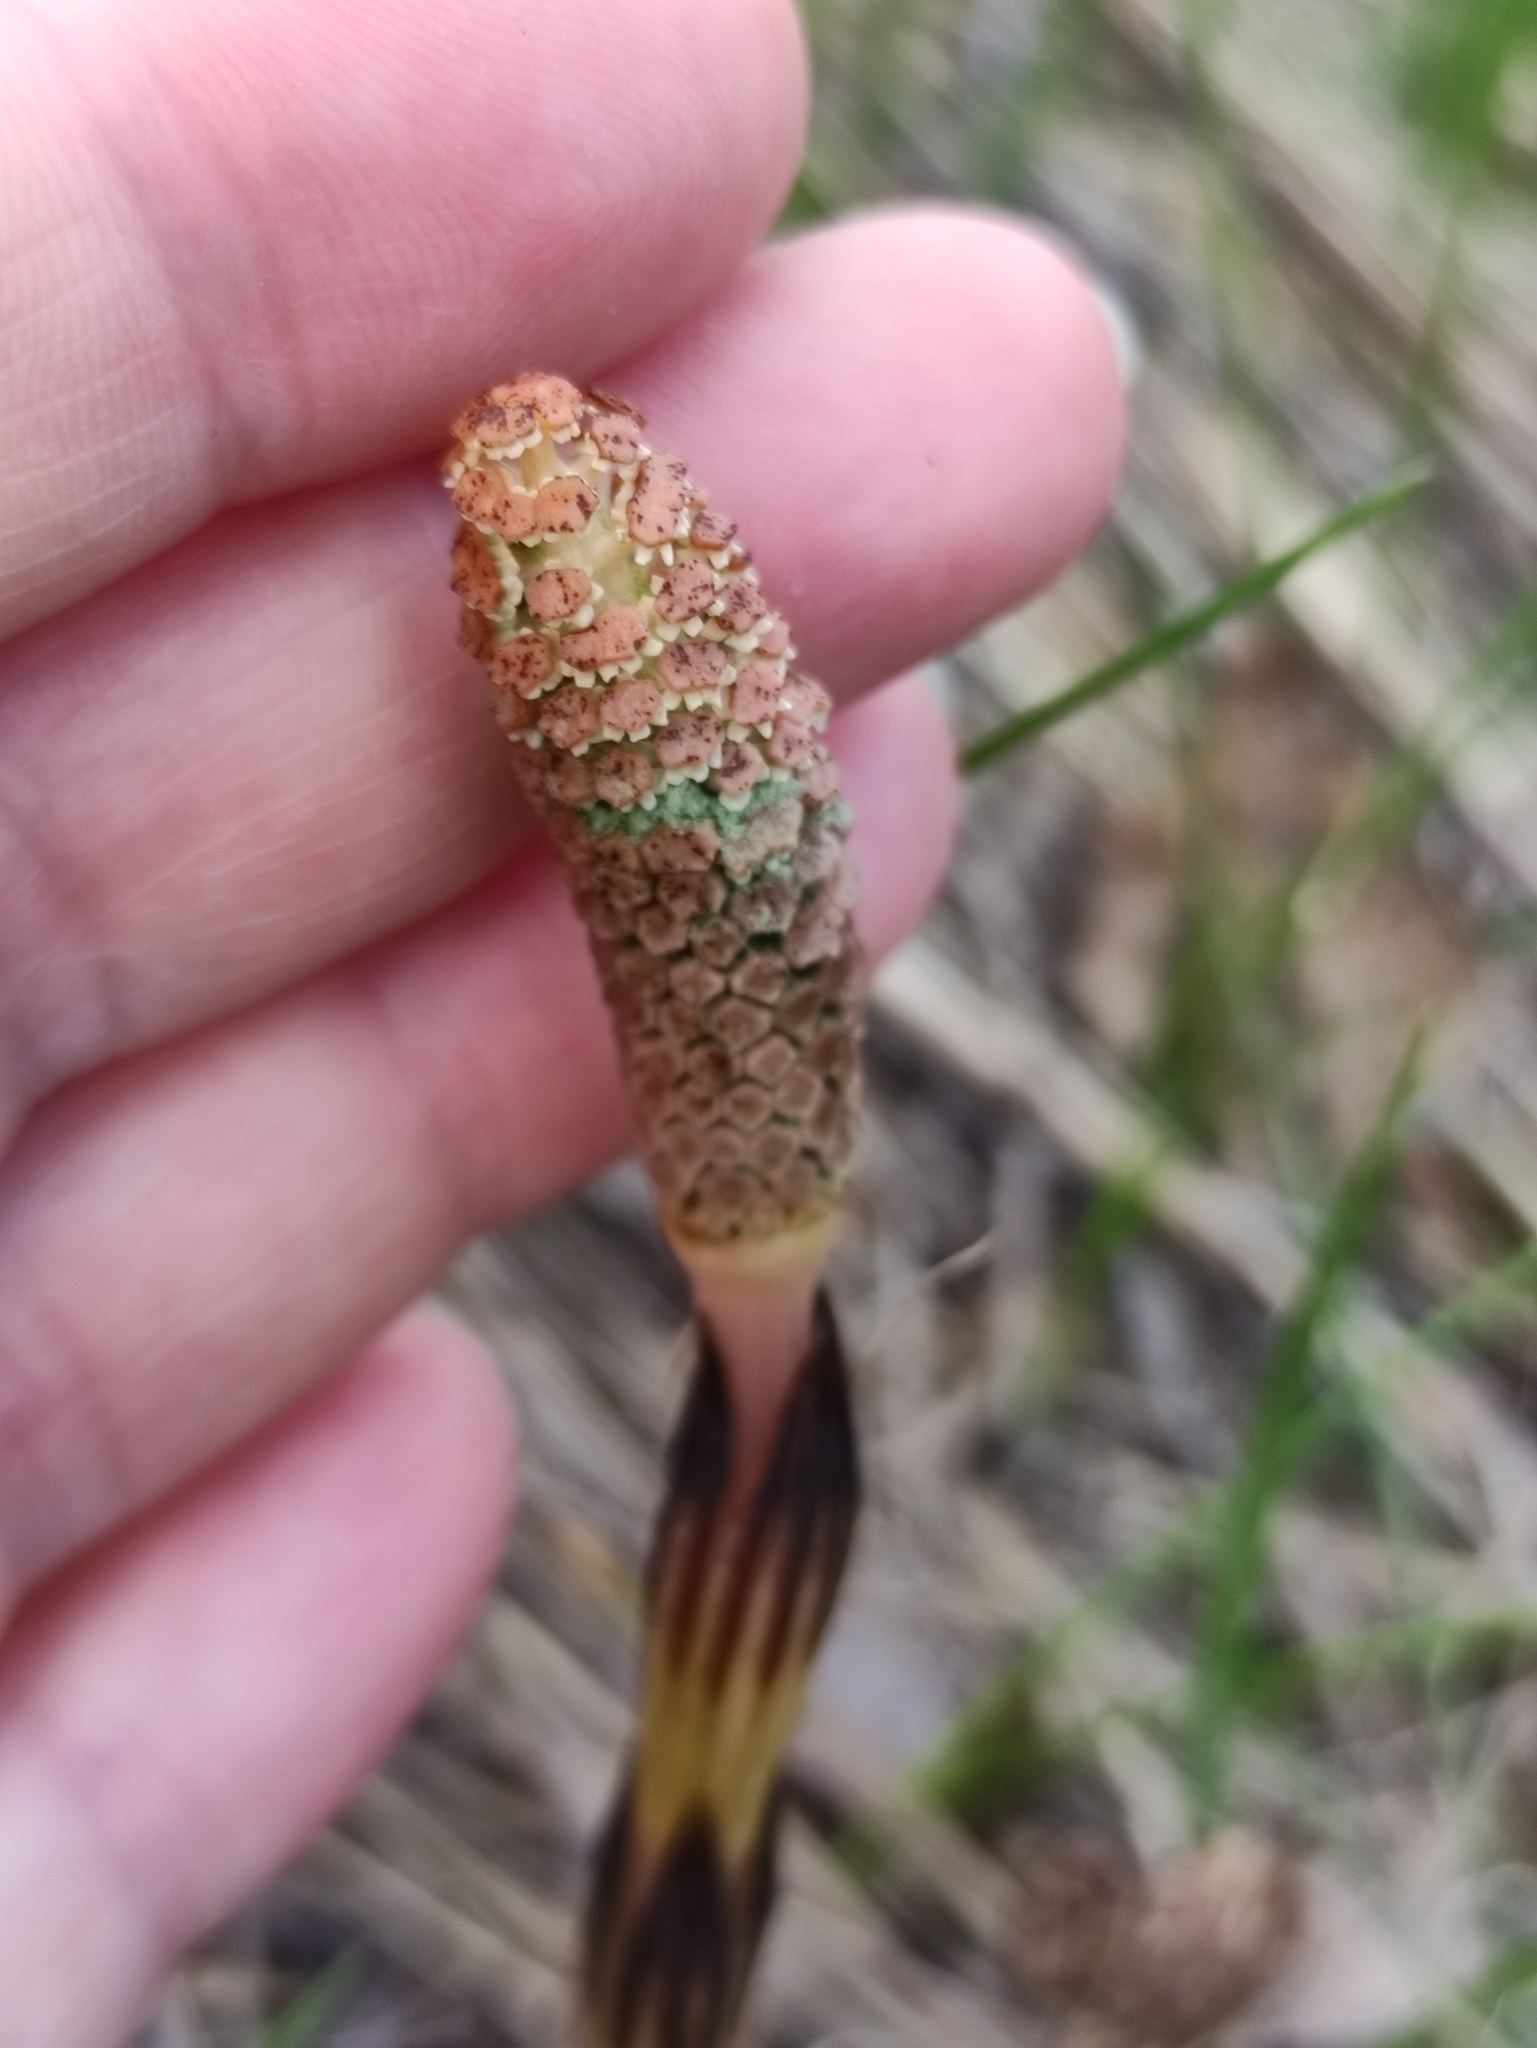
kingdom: Plantae
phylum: Tracheophyta
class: Polypodiopsida
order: Equisetales
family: Equisetaceae
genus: Equisetum
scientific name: Equisetum arvense
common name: Field horsetail
